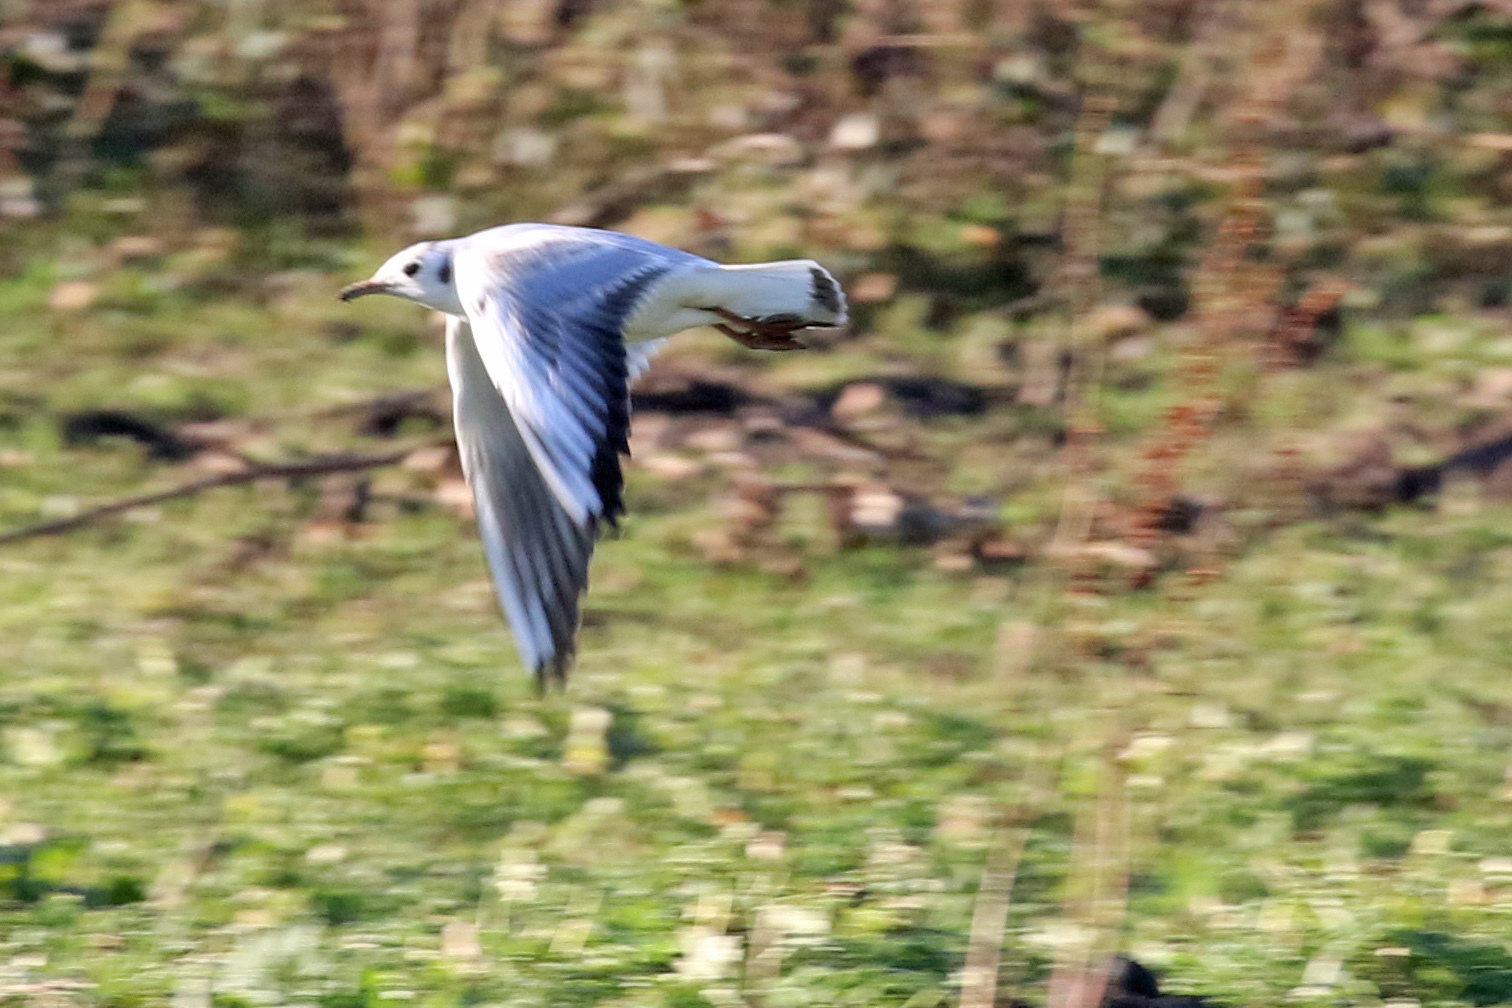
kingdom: Animalia
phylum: Chordata
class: Aves
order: Charadriiformes
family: Laridae
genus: Chroicocephalus
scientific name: Chroicocephalus ridibundus
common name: Black-headed gull
